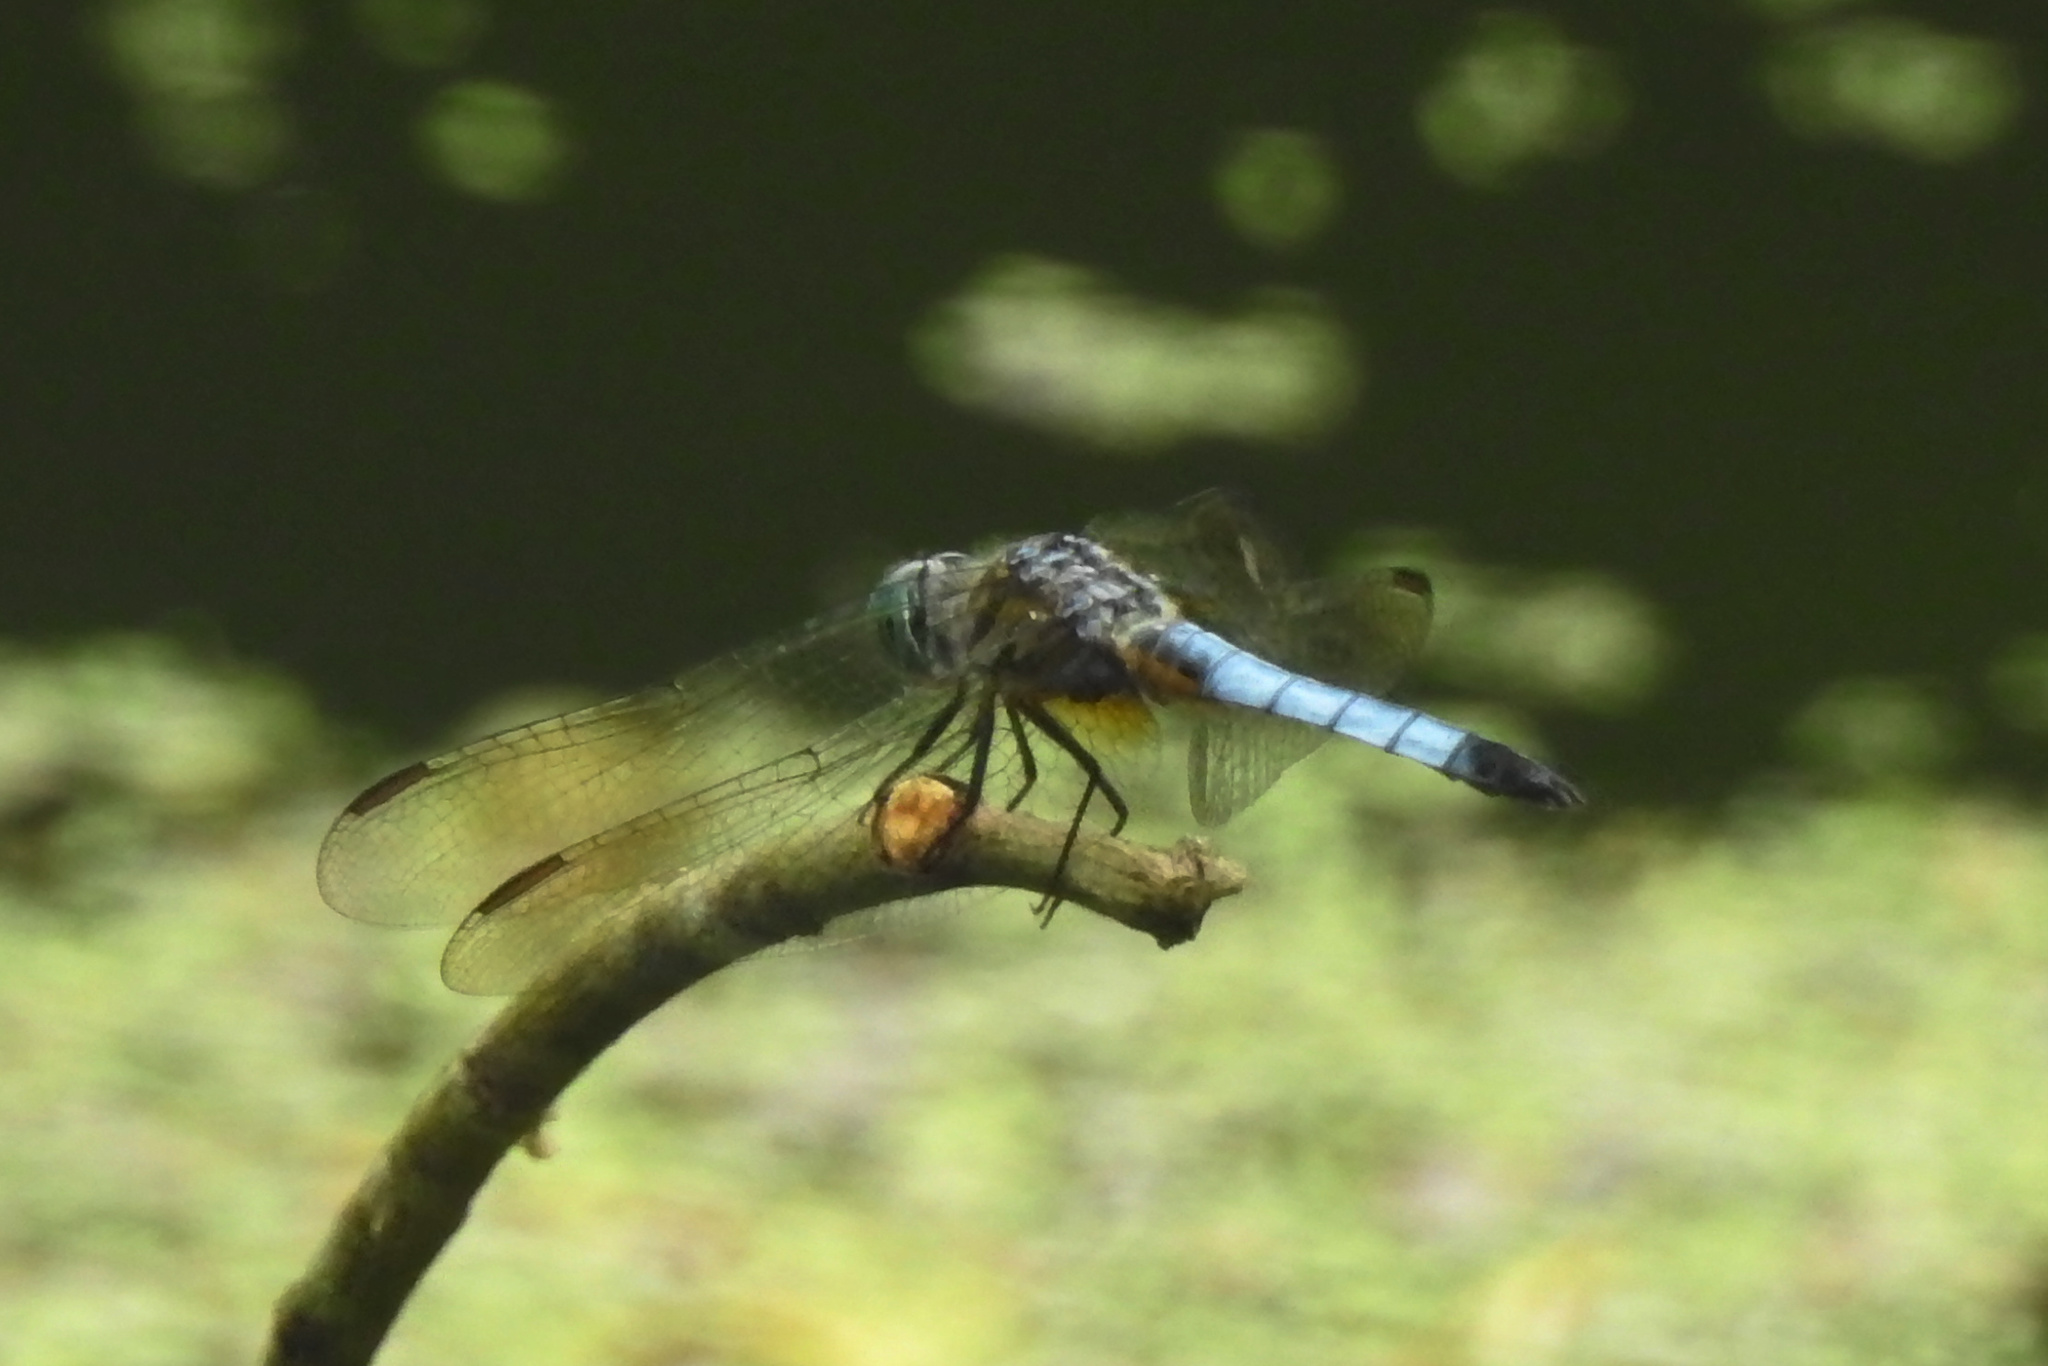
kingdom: Animalia
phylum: Arthropoda
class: Insecta
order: Odonata
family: Libellulidae
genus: Pachydiplax
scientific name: Pachydiplax longipennis
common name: Blue dasher
